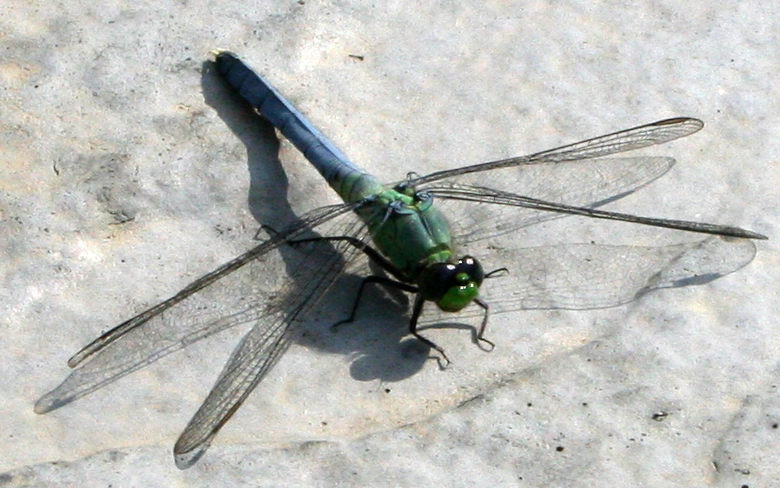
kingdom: Animalia
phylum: Arthropoda
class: Insecta
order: Odonata
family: Libellulidae
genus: Erythemis
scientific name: Erythemis simplicicollis
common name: Eastern pondhawk
